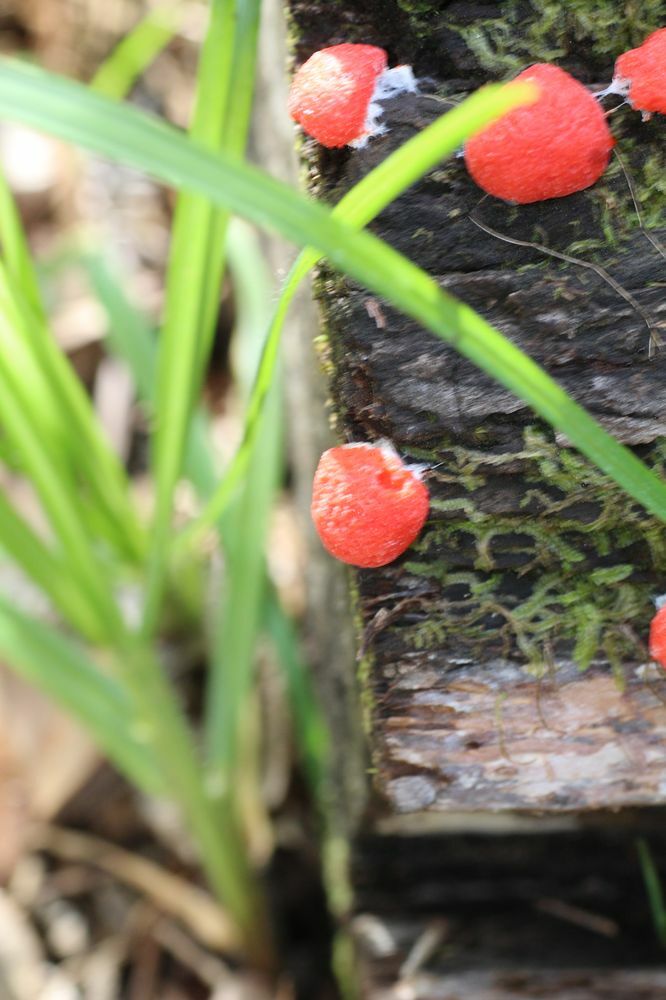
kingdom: Protozoa
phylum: Mycetozoa
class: Myxomycetes
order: Cribrariales
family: Tubiferaceae
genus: Tubifera
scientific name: Tubifera ferruginosa
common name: Red raspberry slime mold
